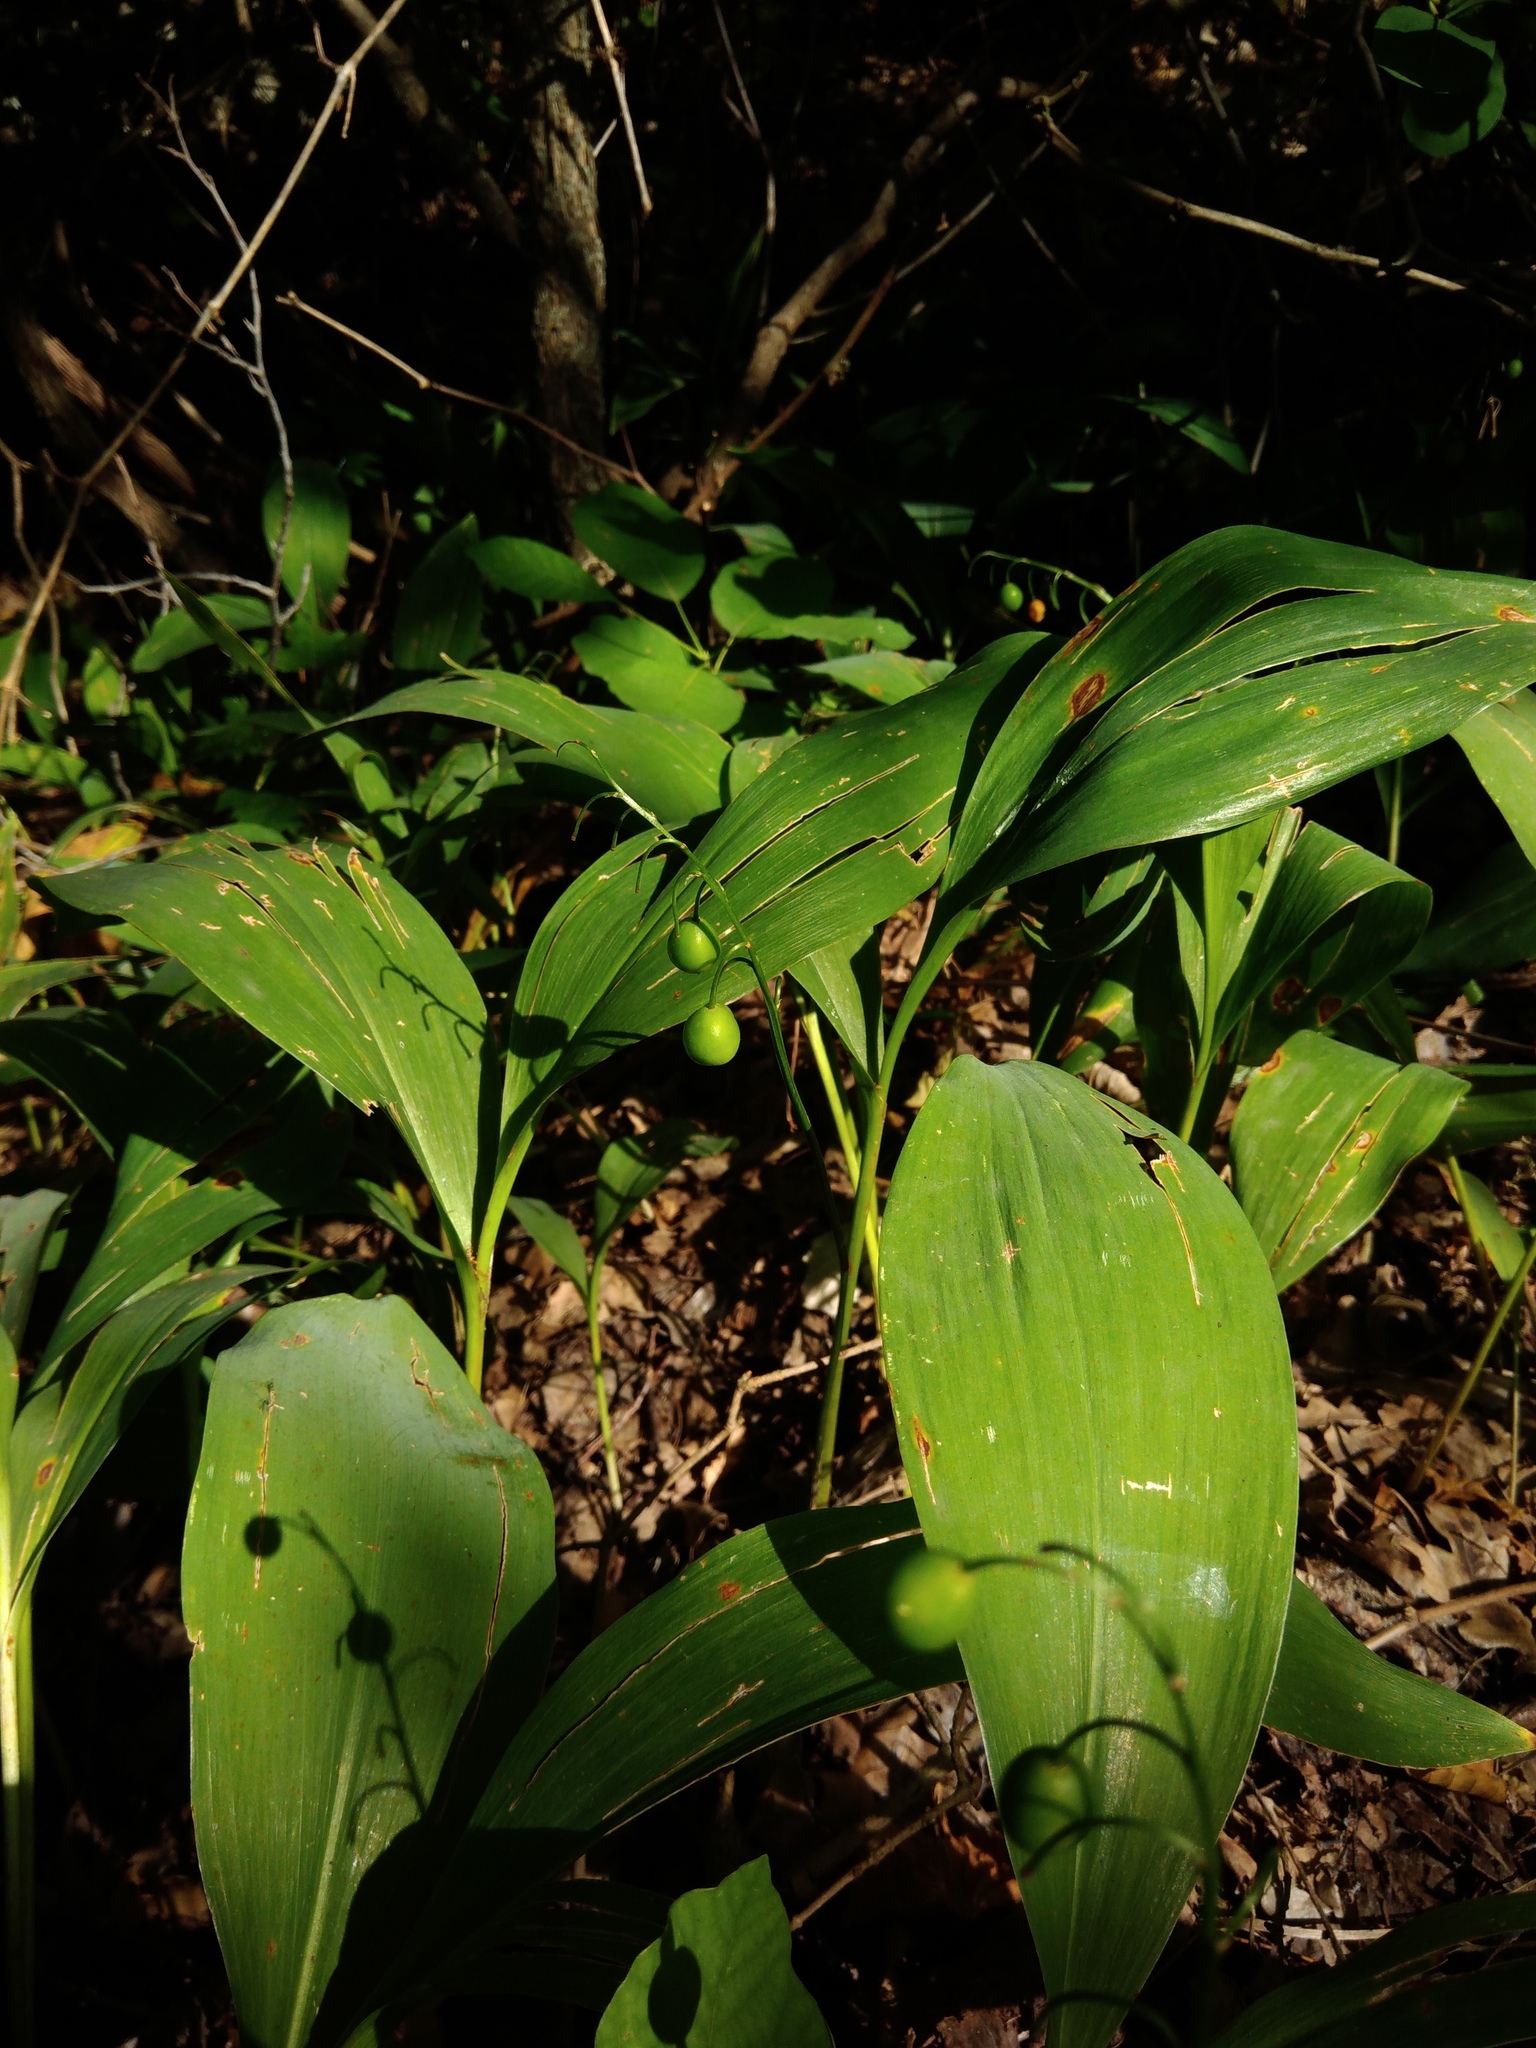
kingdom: Plantae
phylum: Tracheophyta
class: Liliopsida
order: Asparagales
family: Asparagaceae
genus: Convallaria
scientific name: Convallaria majalis
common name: Lily-of-the-valley
